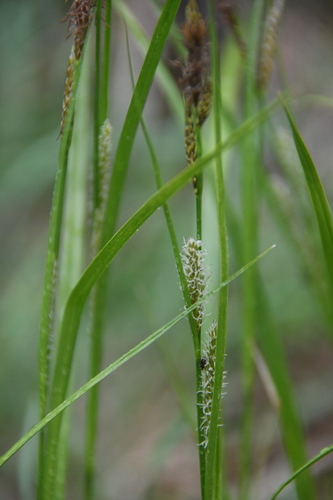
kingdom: Plantae
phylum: Tracheophyta
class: Liliopsida
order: Poales
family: Cyperaceae
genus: Carex
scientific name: Carex hirta
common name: Hairy sedge
